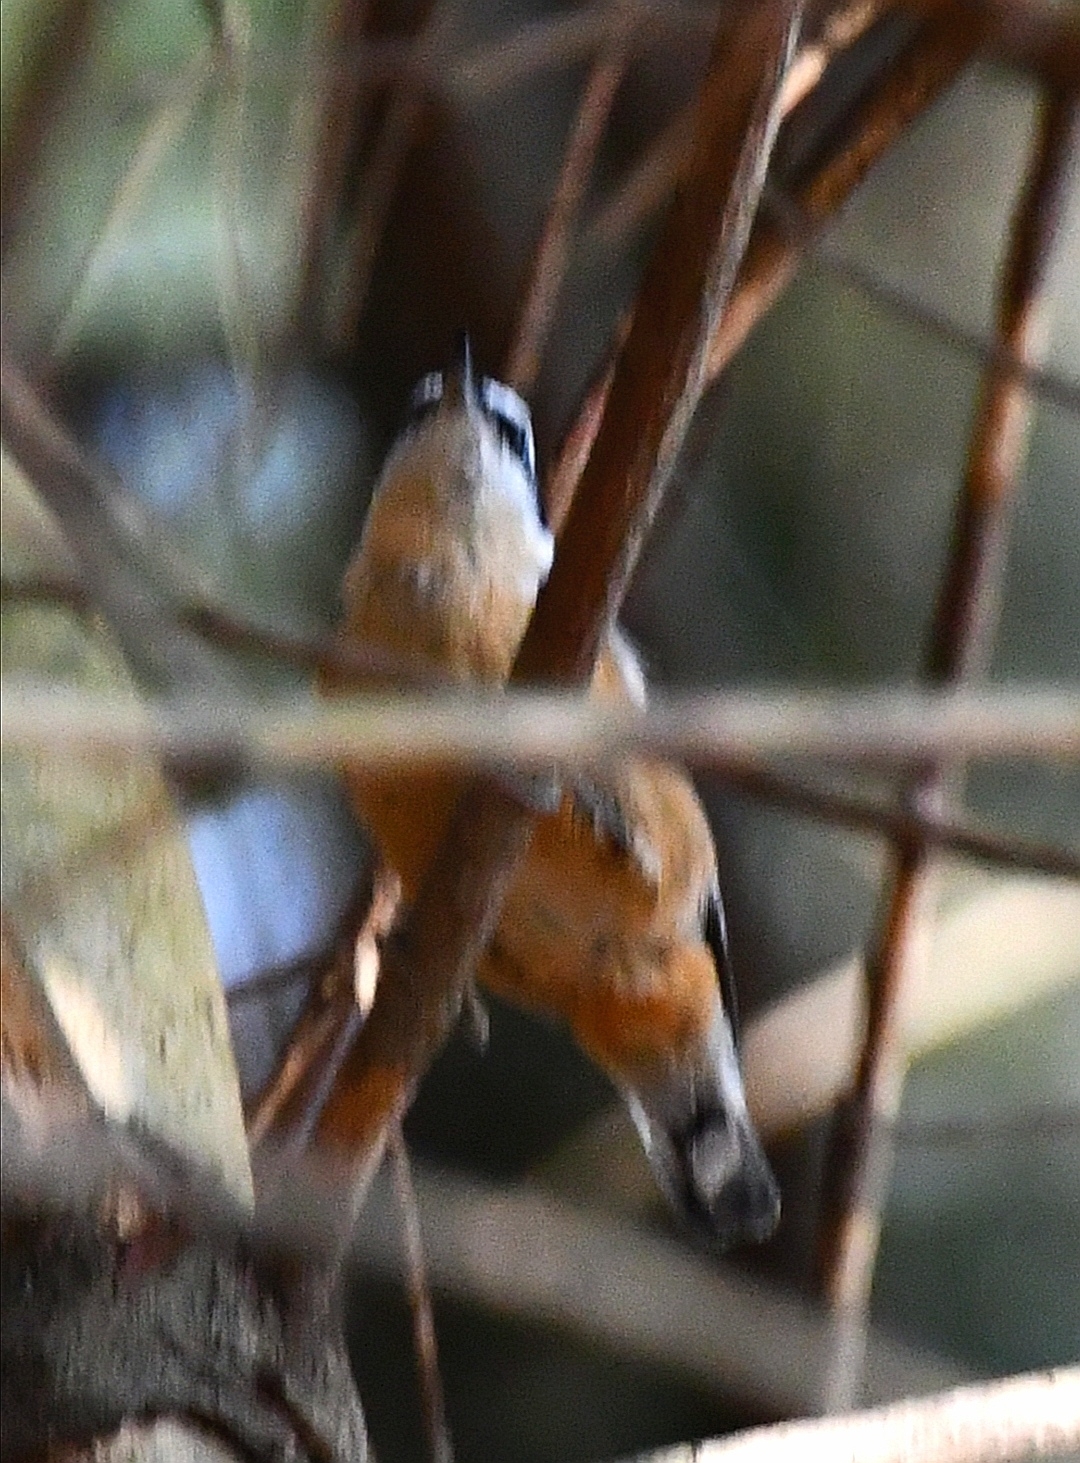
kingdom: Animalia
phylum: Chordata
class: Aves
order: Passeriformes
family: Sittidae
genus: Sitta
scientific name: Sitta canadensis
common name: Red-breasted nuthatch
